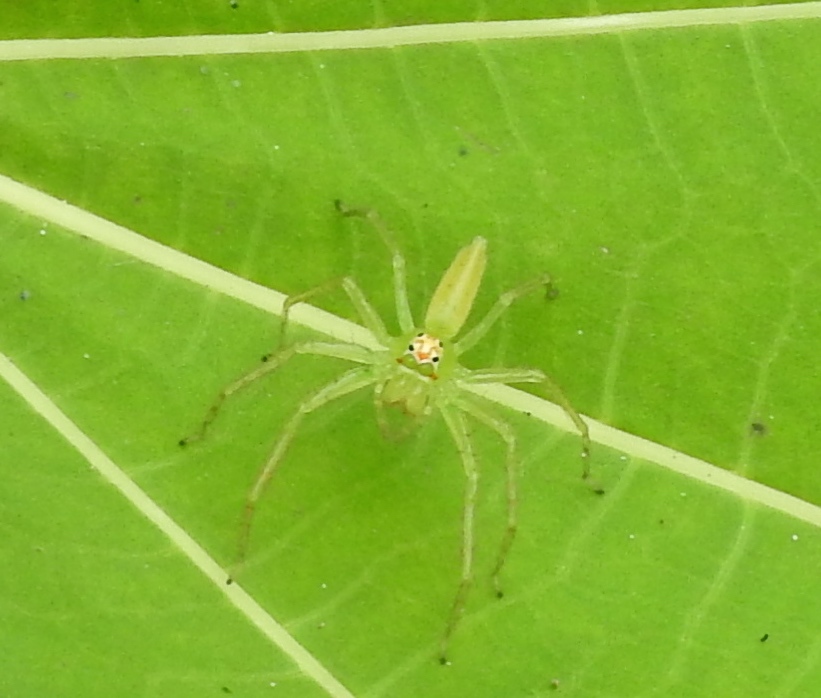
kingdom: Animalia
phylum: Arthropoda
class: Arachnida
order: Araneae
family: Salticidae
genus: Lyssomanes
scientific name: Lyssomanes
